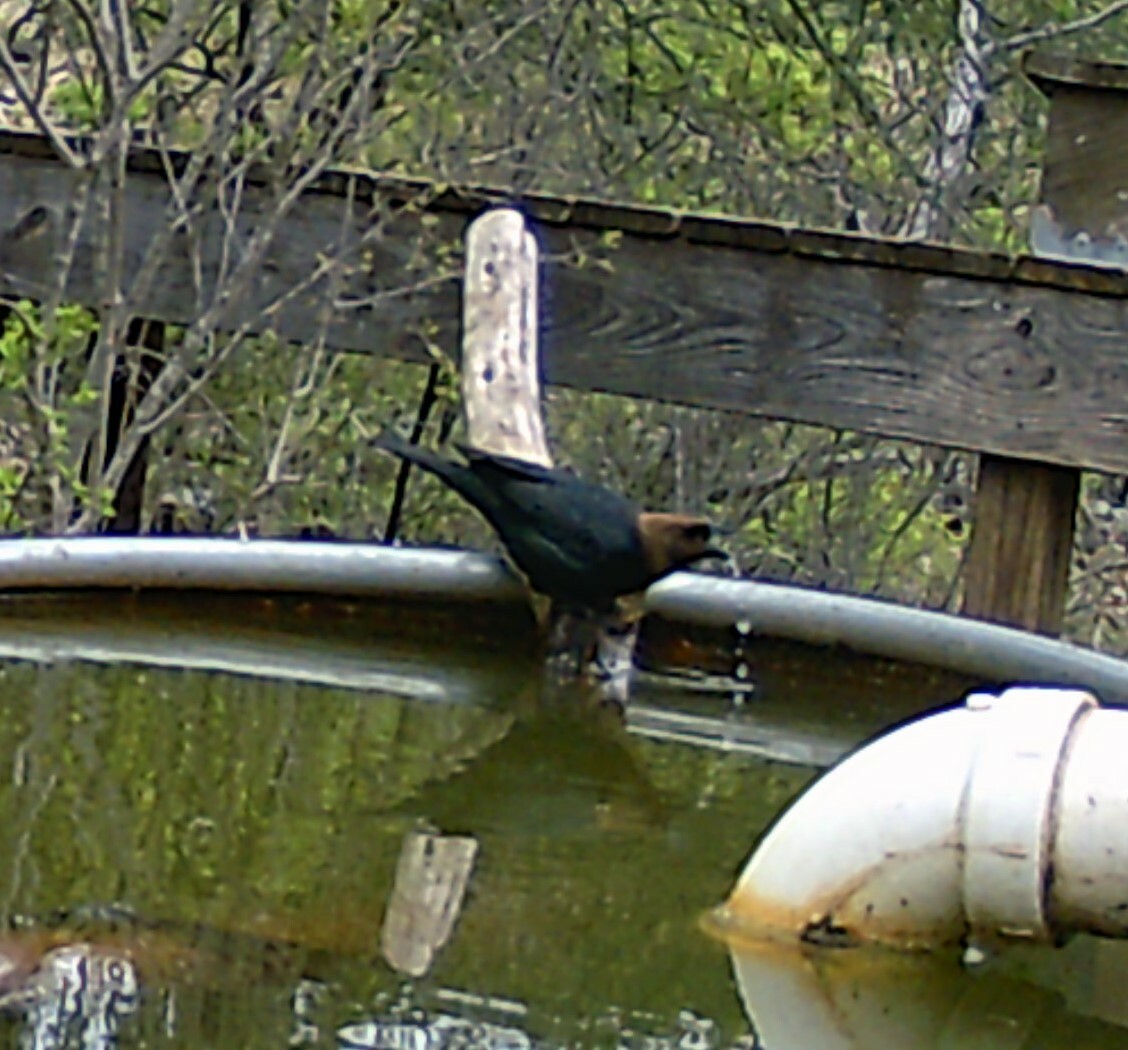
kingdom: Animalia
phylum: Chordata
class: Aves
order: Passeriformes
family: Icteridae
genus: Molothrus
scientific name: Molothrus ater
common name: Brown-headed cowbird
